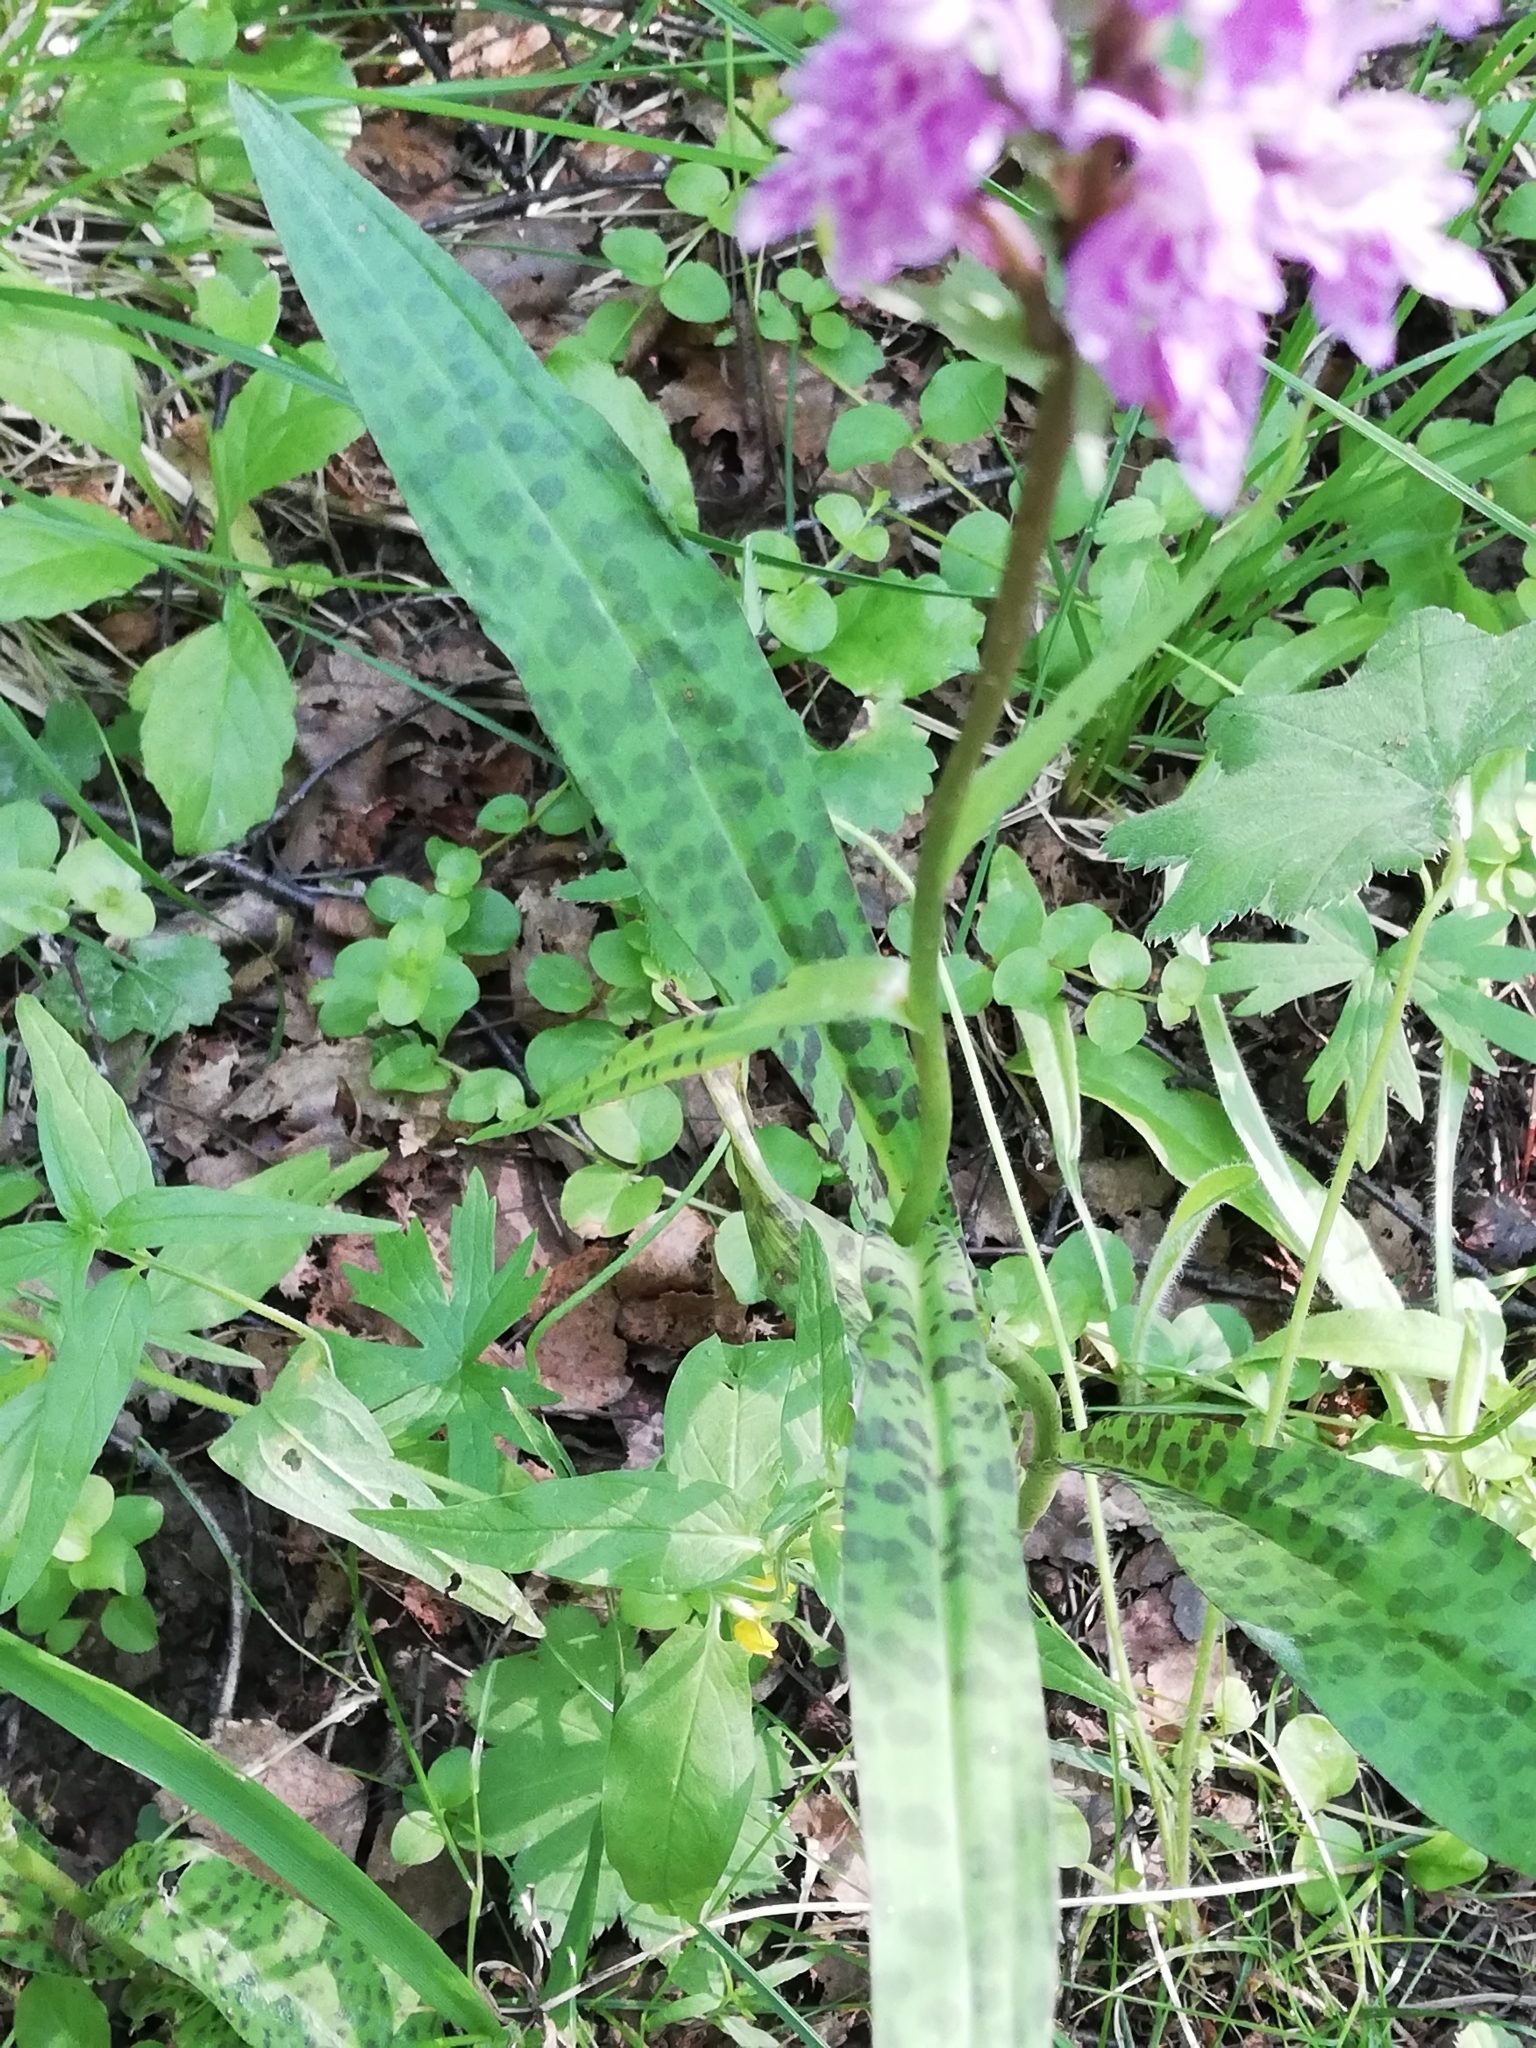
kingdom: Plantae
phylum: Tracheophyta
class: Liliopsida
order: Asparagales
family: Orchidaceae
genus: Dactylorhiza
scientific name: Dactylorhiza maculata
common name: Heath spotted-orchid
